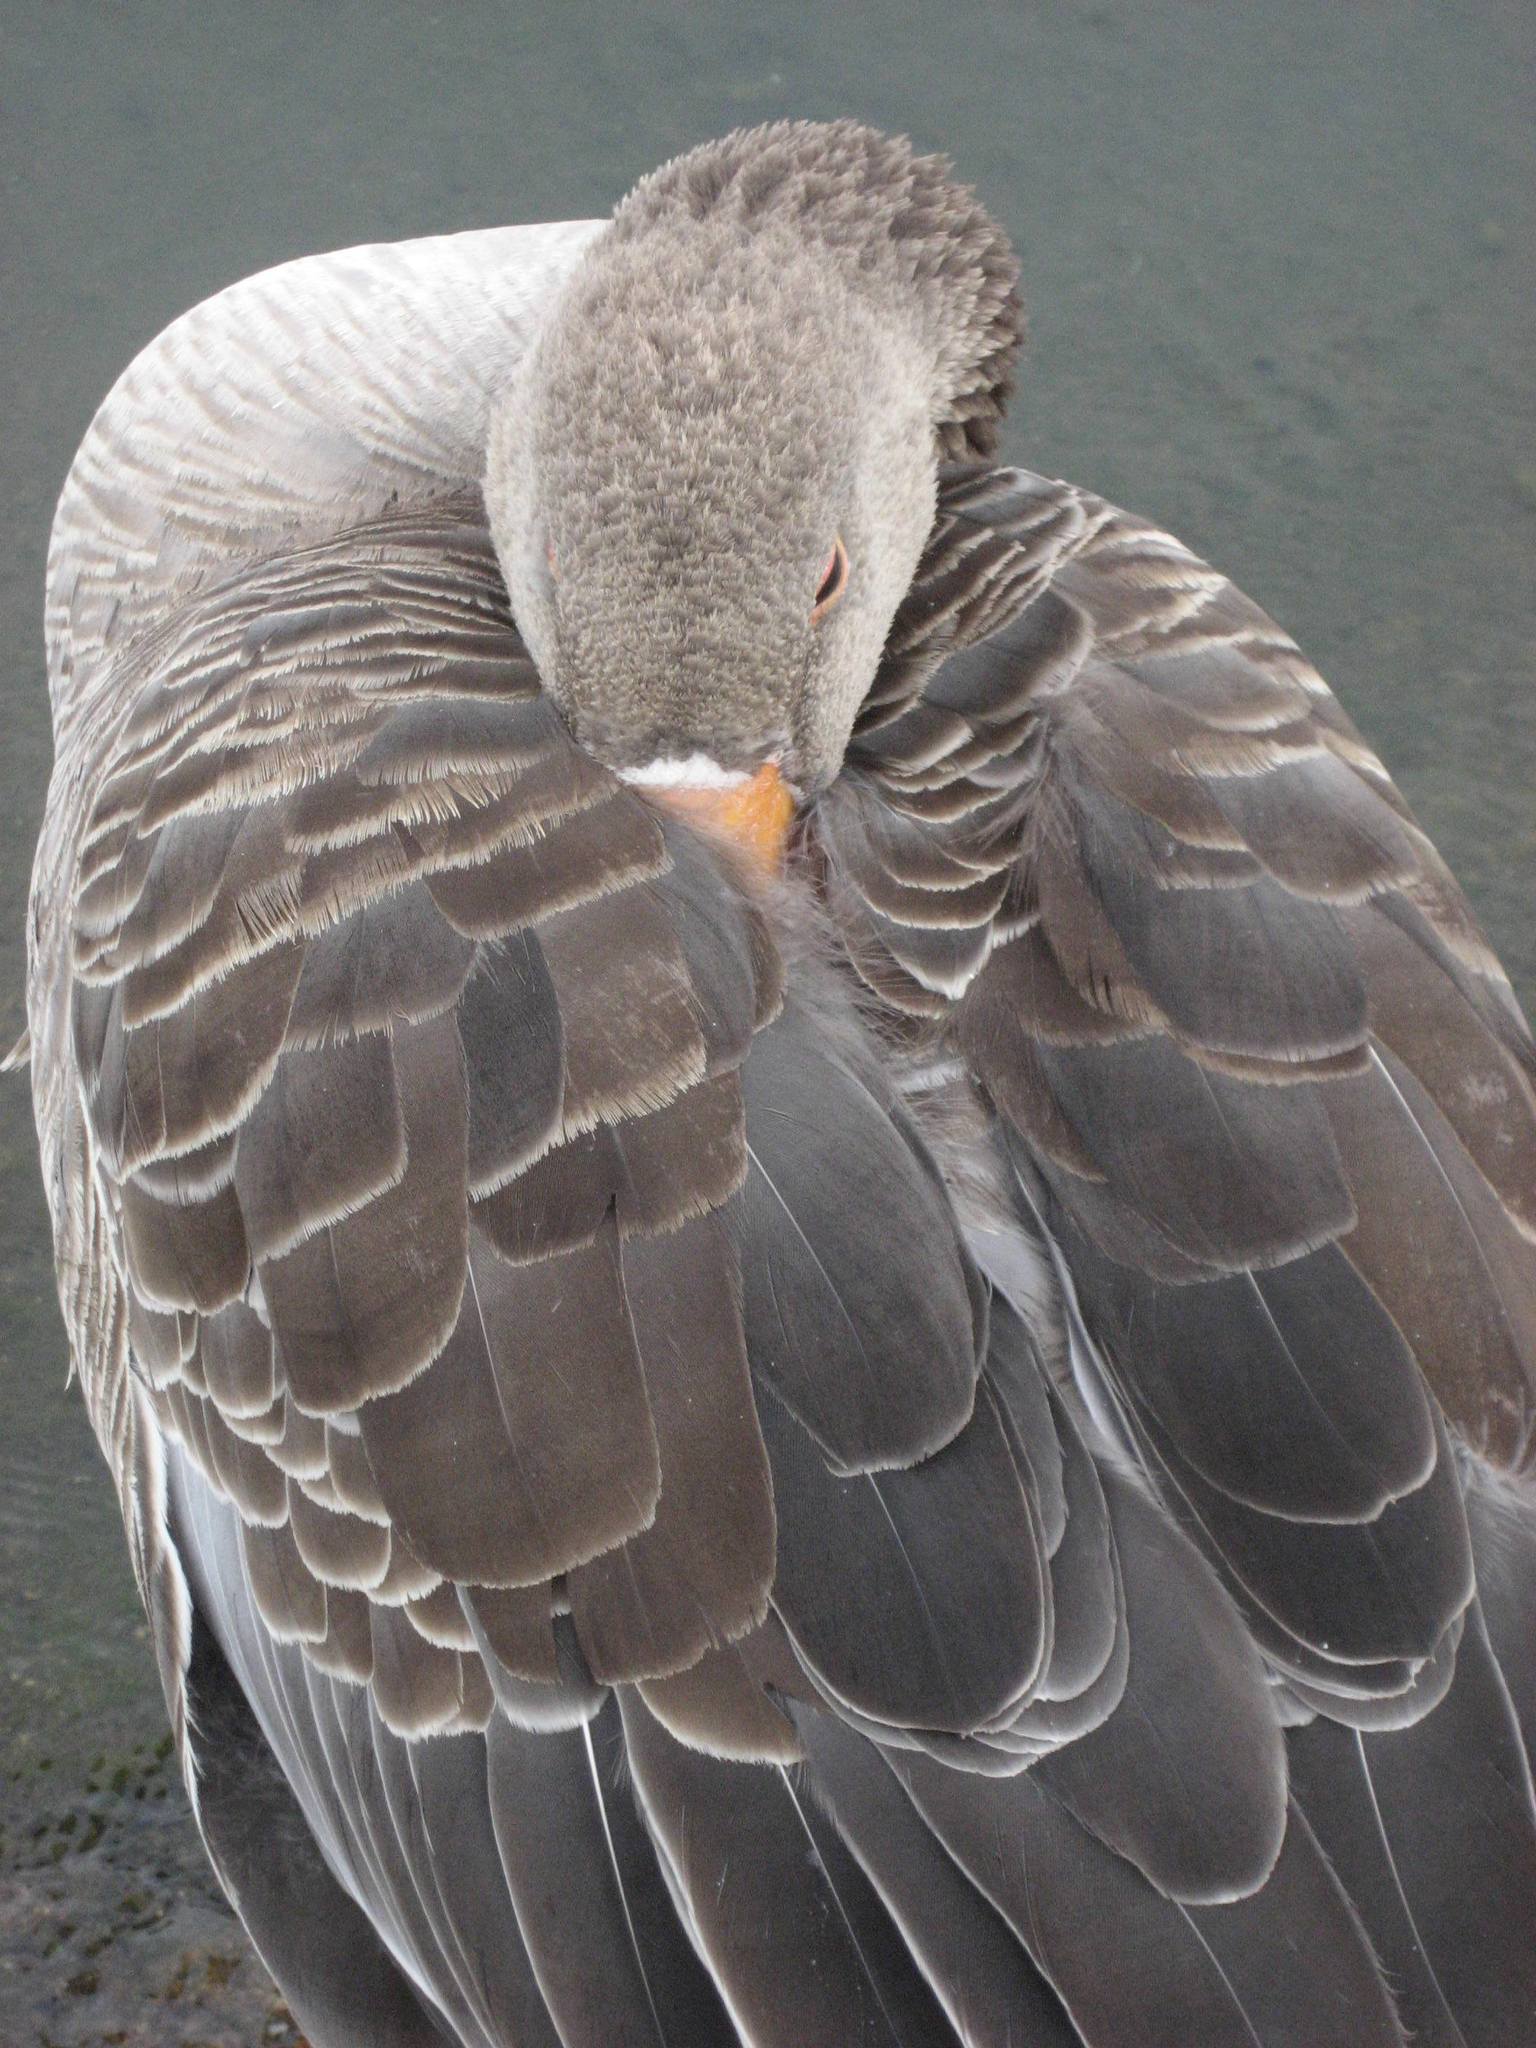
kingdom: Animalia
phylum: Chordata
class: Aves
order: Anseriformes
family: Anatidae
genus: Anser
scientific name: Anser anser
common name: Greylag goose
